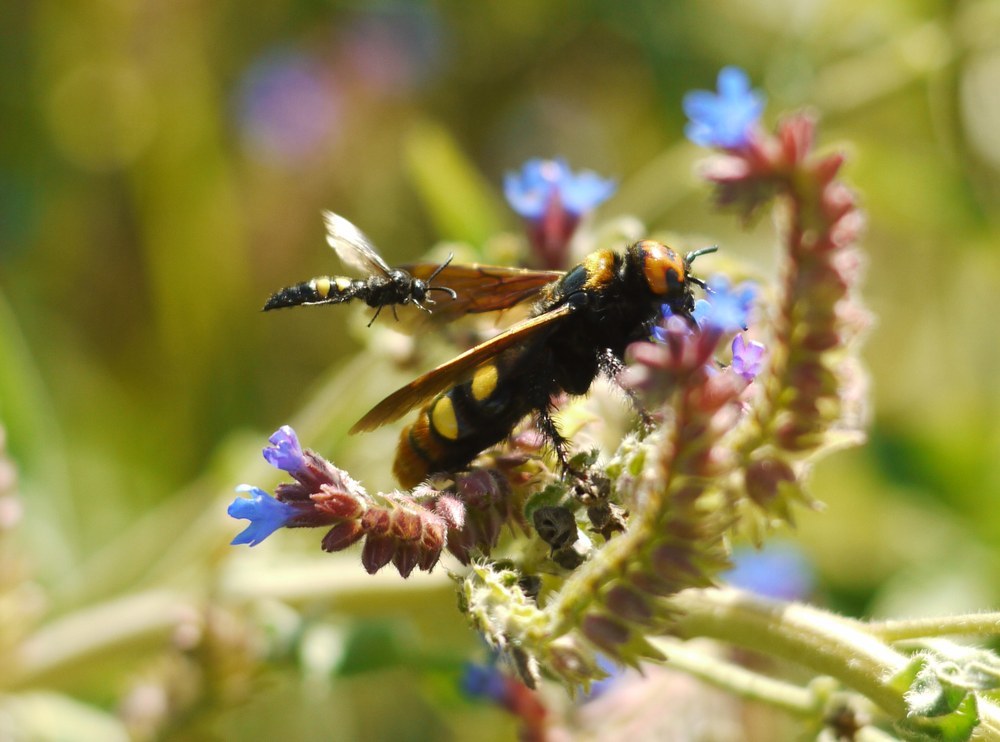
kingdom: Animalia
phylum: Arthropoda
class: Insecta
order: Hymenoptera
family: Scoliidae
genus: Megascolia
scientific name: Megascolia maculata
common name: Mammoth wasp
